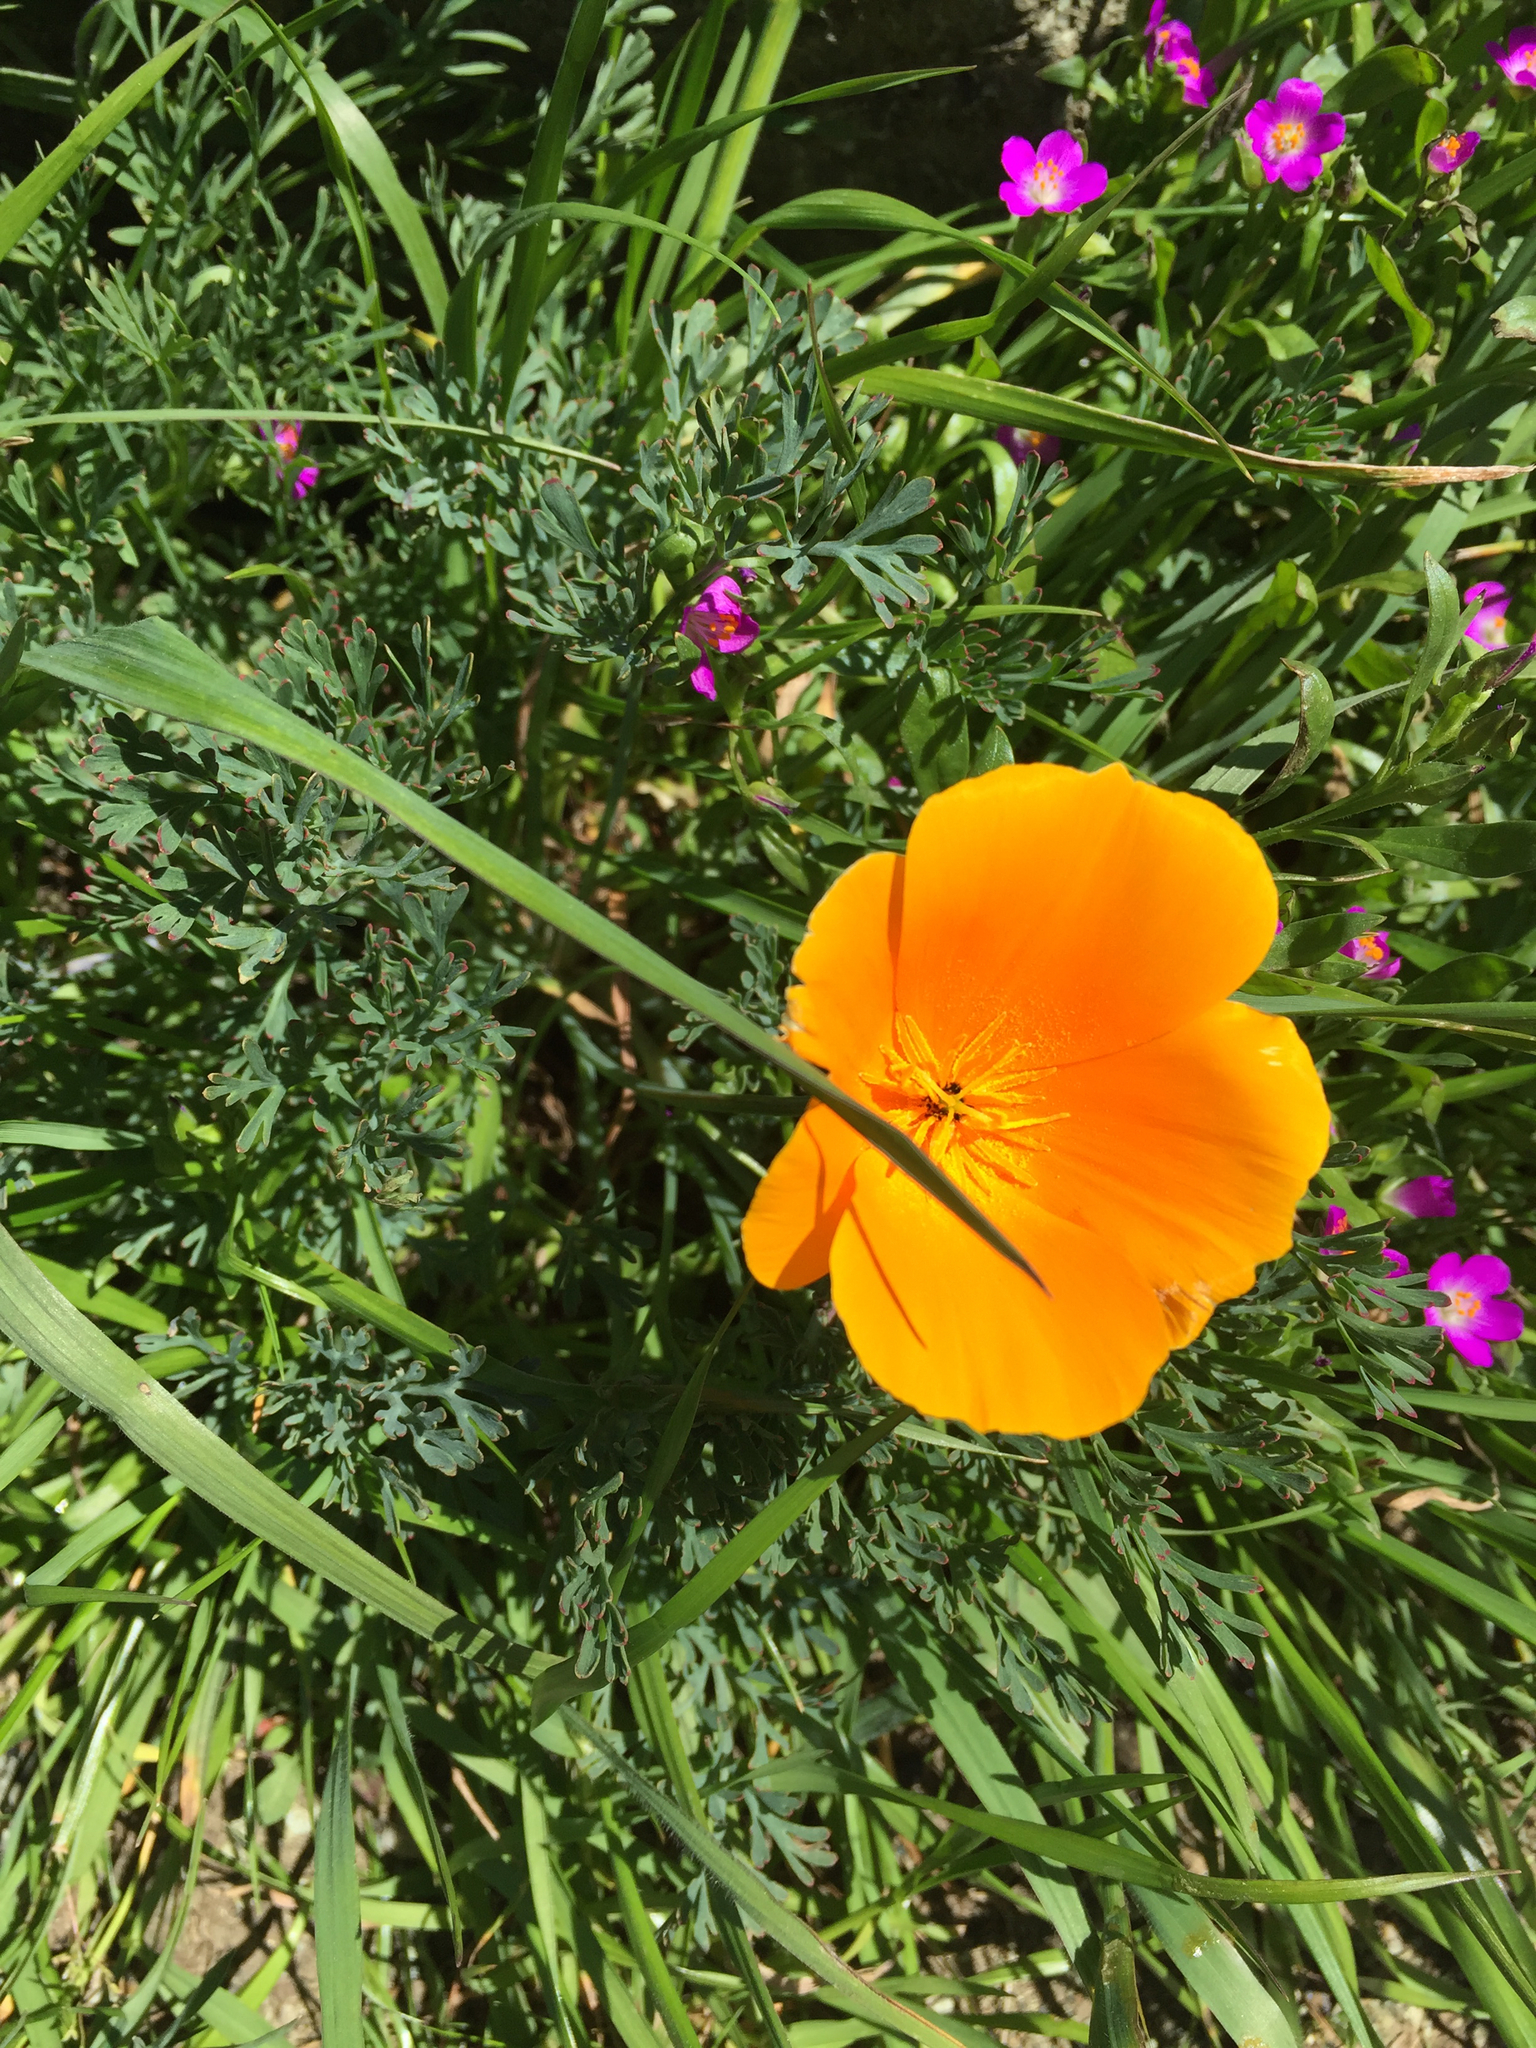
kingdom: Plantae
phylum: Tracheophyta
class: Magnoliopsida
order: Ranunculales
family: Papaveraceae
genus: Eschscholzia
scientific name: Eschscholzia californica
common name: California poppy
